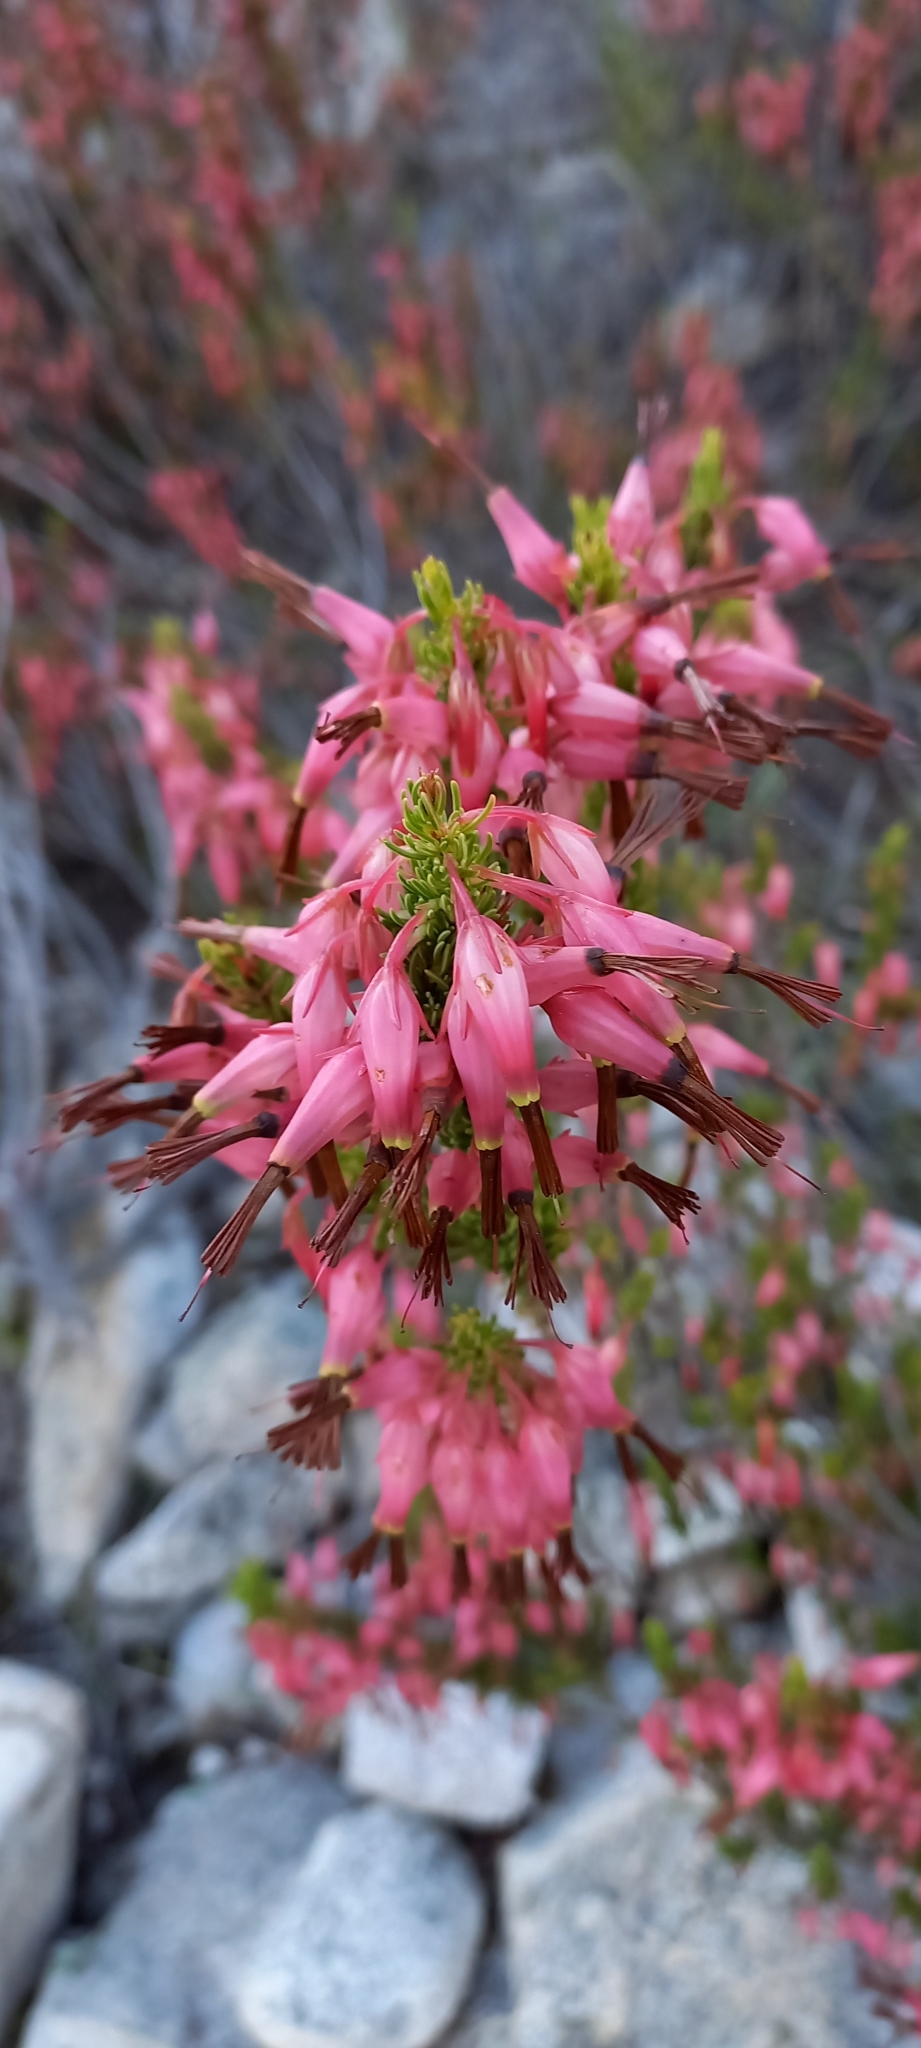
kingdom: Plantae
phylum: Tracheophyta
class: Magnoliopsida
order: Ericales
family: Ericaceae
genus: Erica
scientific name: Erica plukenetii
